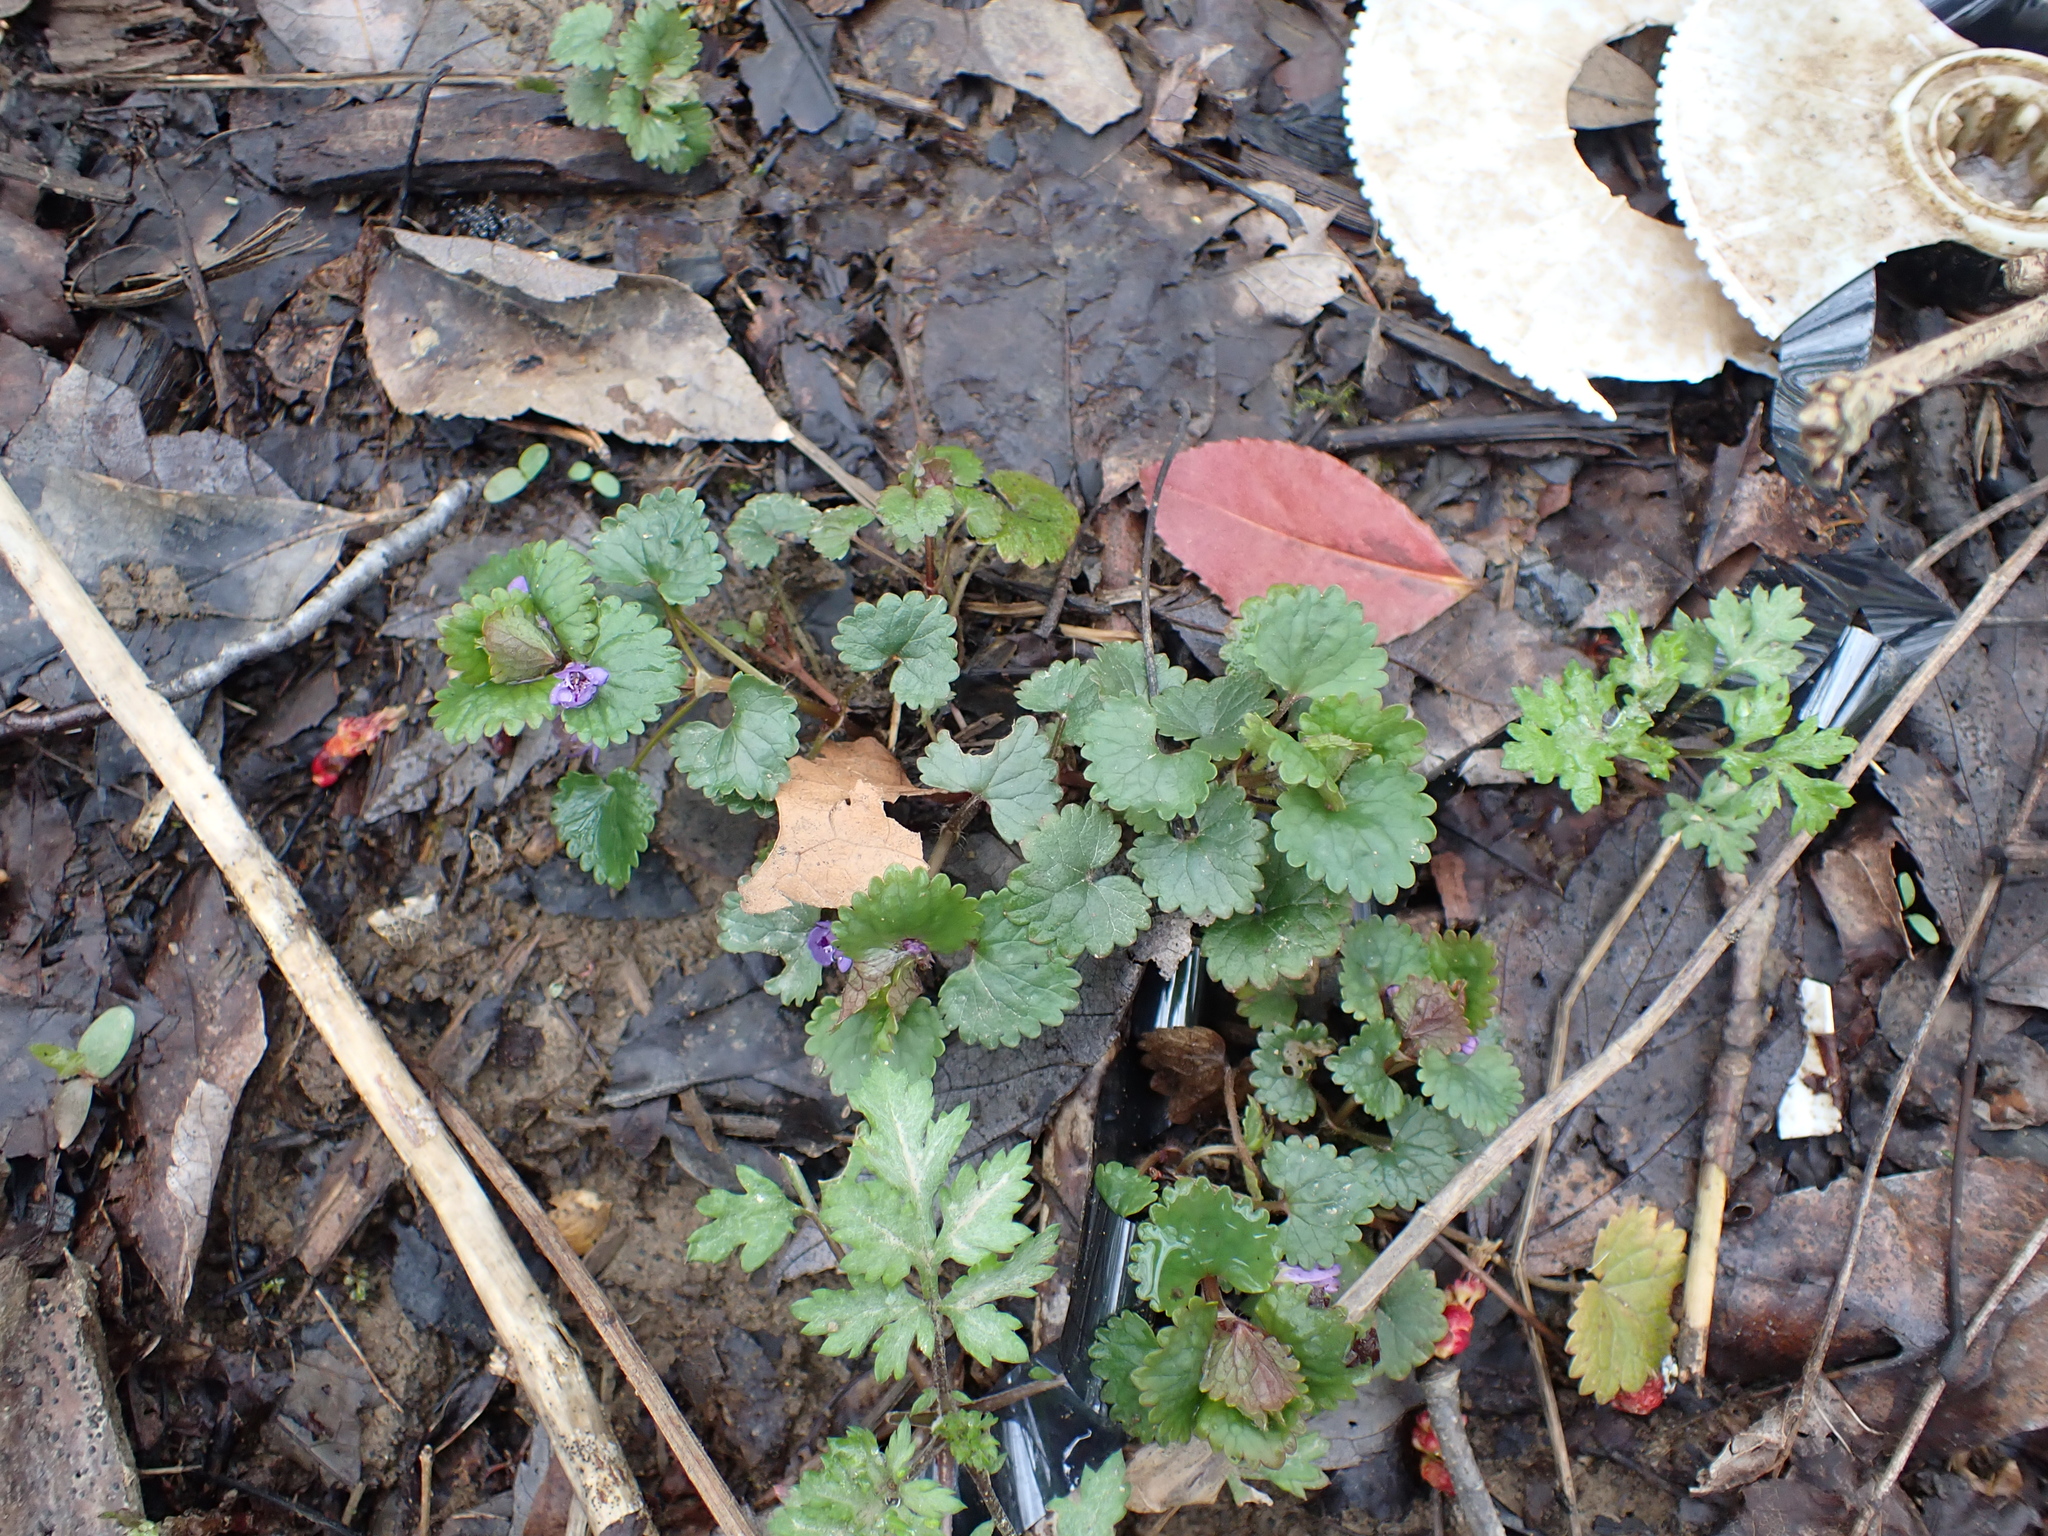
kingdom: Plantae
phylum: Tracheophyta
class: Magnoliopsida
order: Lamiales
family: Lamiaceae
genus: Glechoma
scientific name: Glechoma hederacea
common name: Ground ivy
